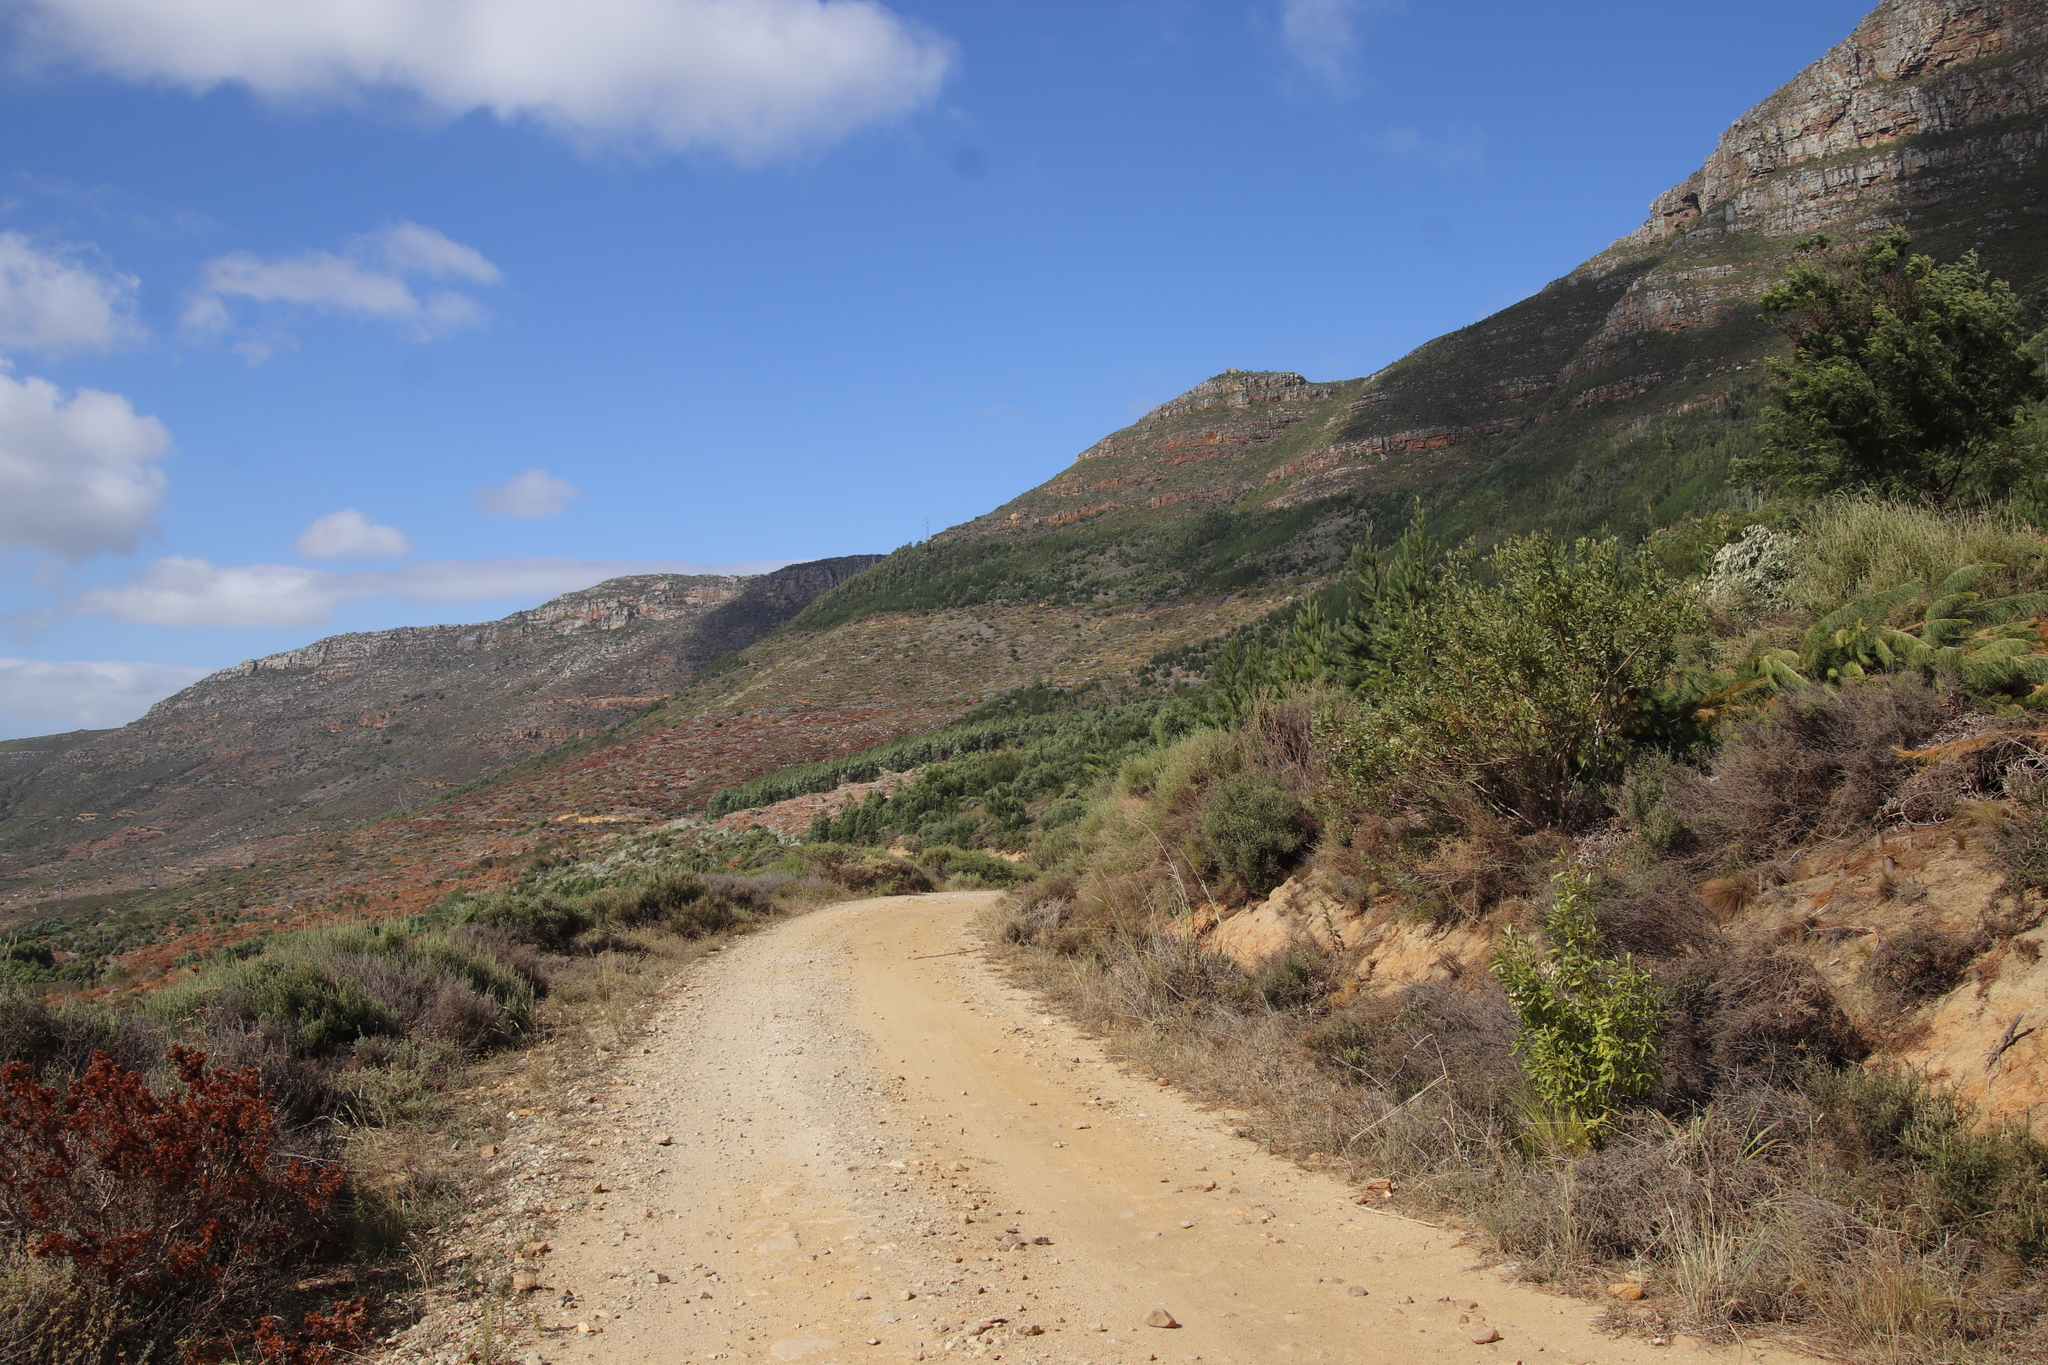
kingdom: Plantae
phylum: Tracheophyta
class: Magnoliopsida
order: Malpighiales
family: Achariaceae
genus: Kiggelaria
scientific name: Kiggelaria africana
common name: Wild peach
